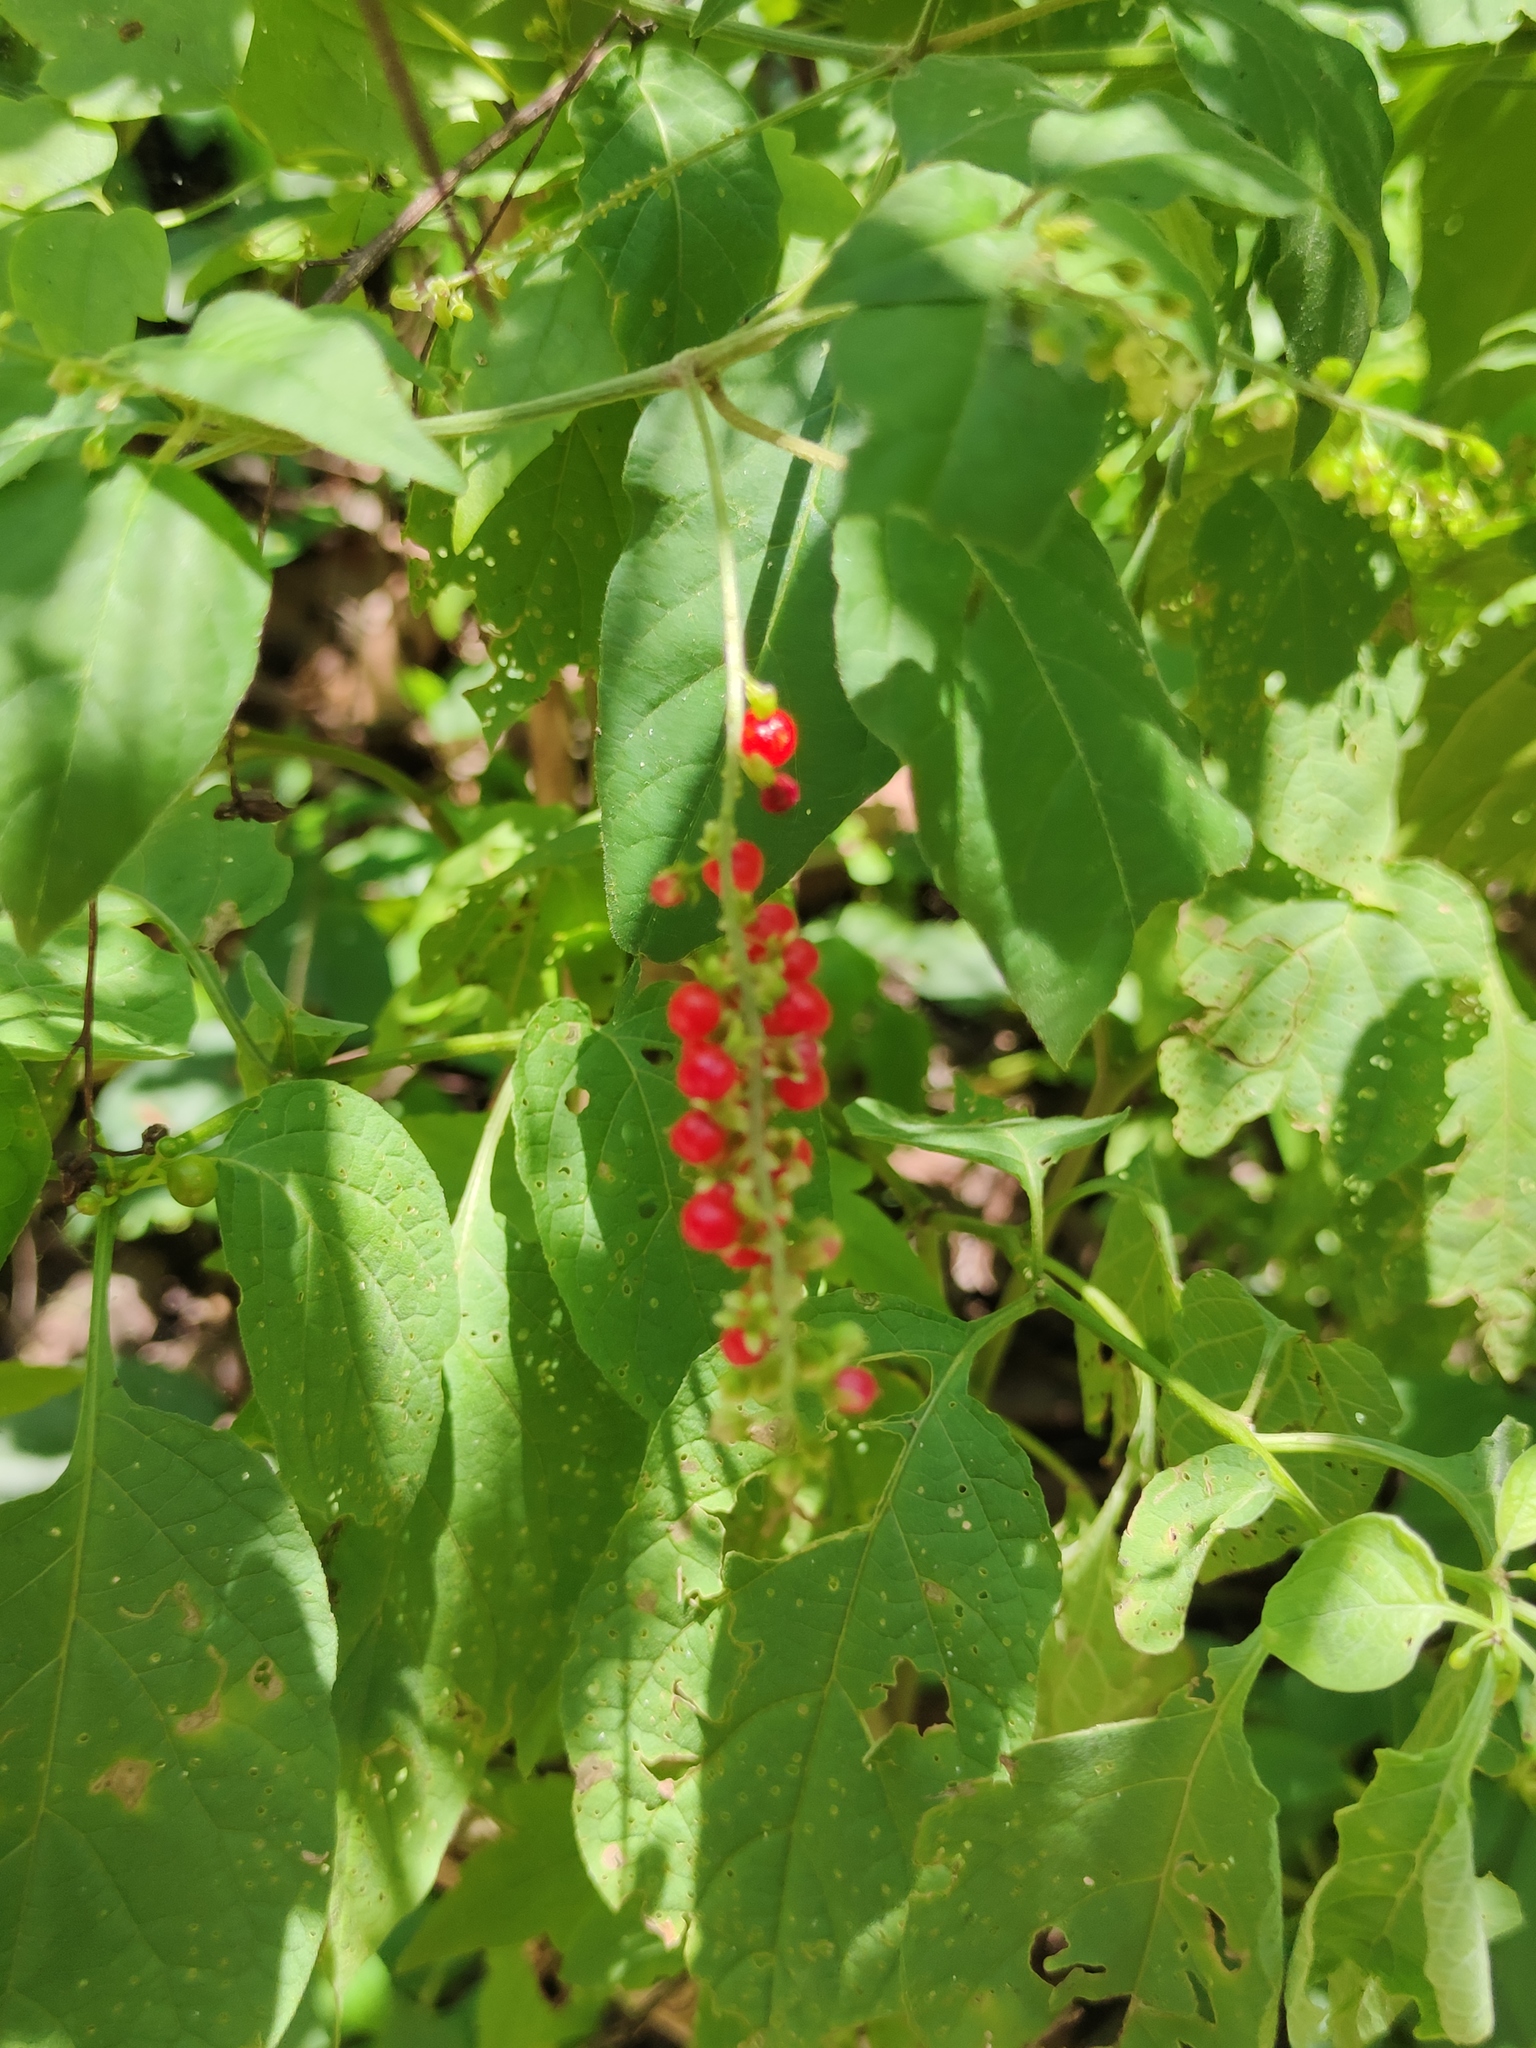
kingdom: Plantae
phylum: Tracheophyta
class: Magnoliopsida
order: Caryophyllales
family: Phytolaccaceae
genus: Rivina
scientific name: Rivina humilis
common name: Rougeplant
